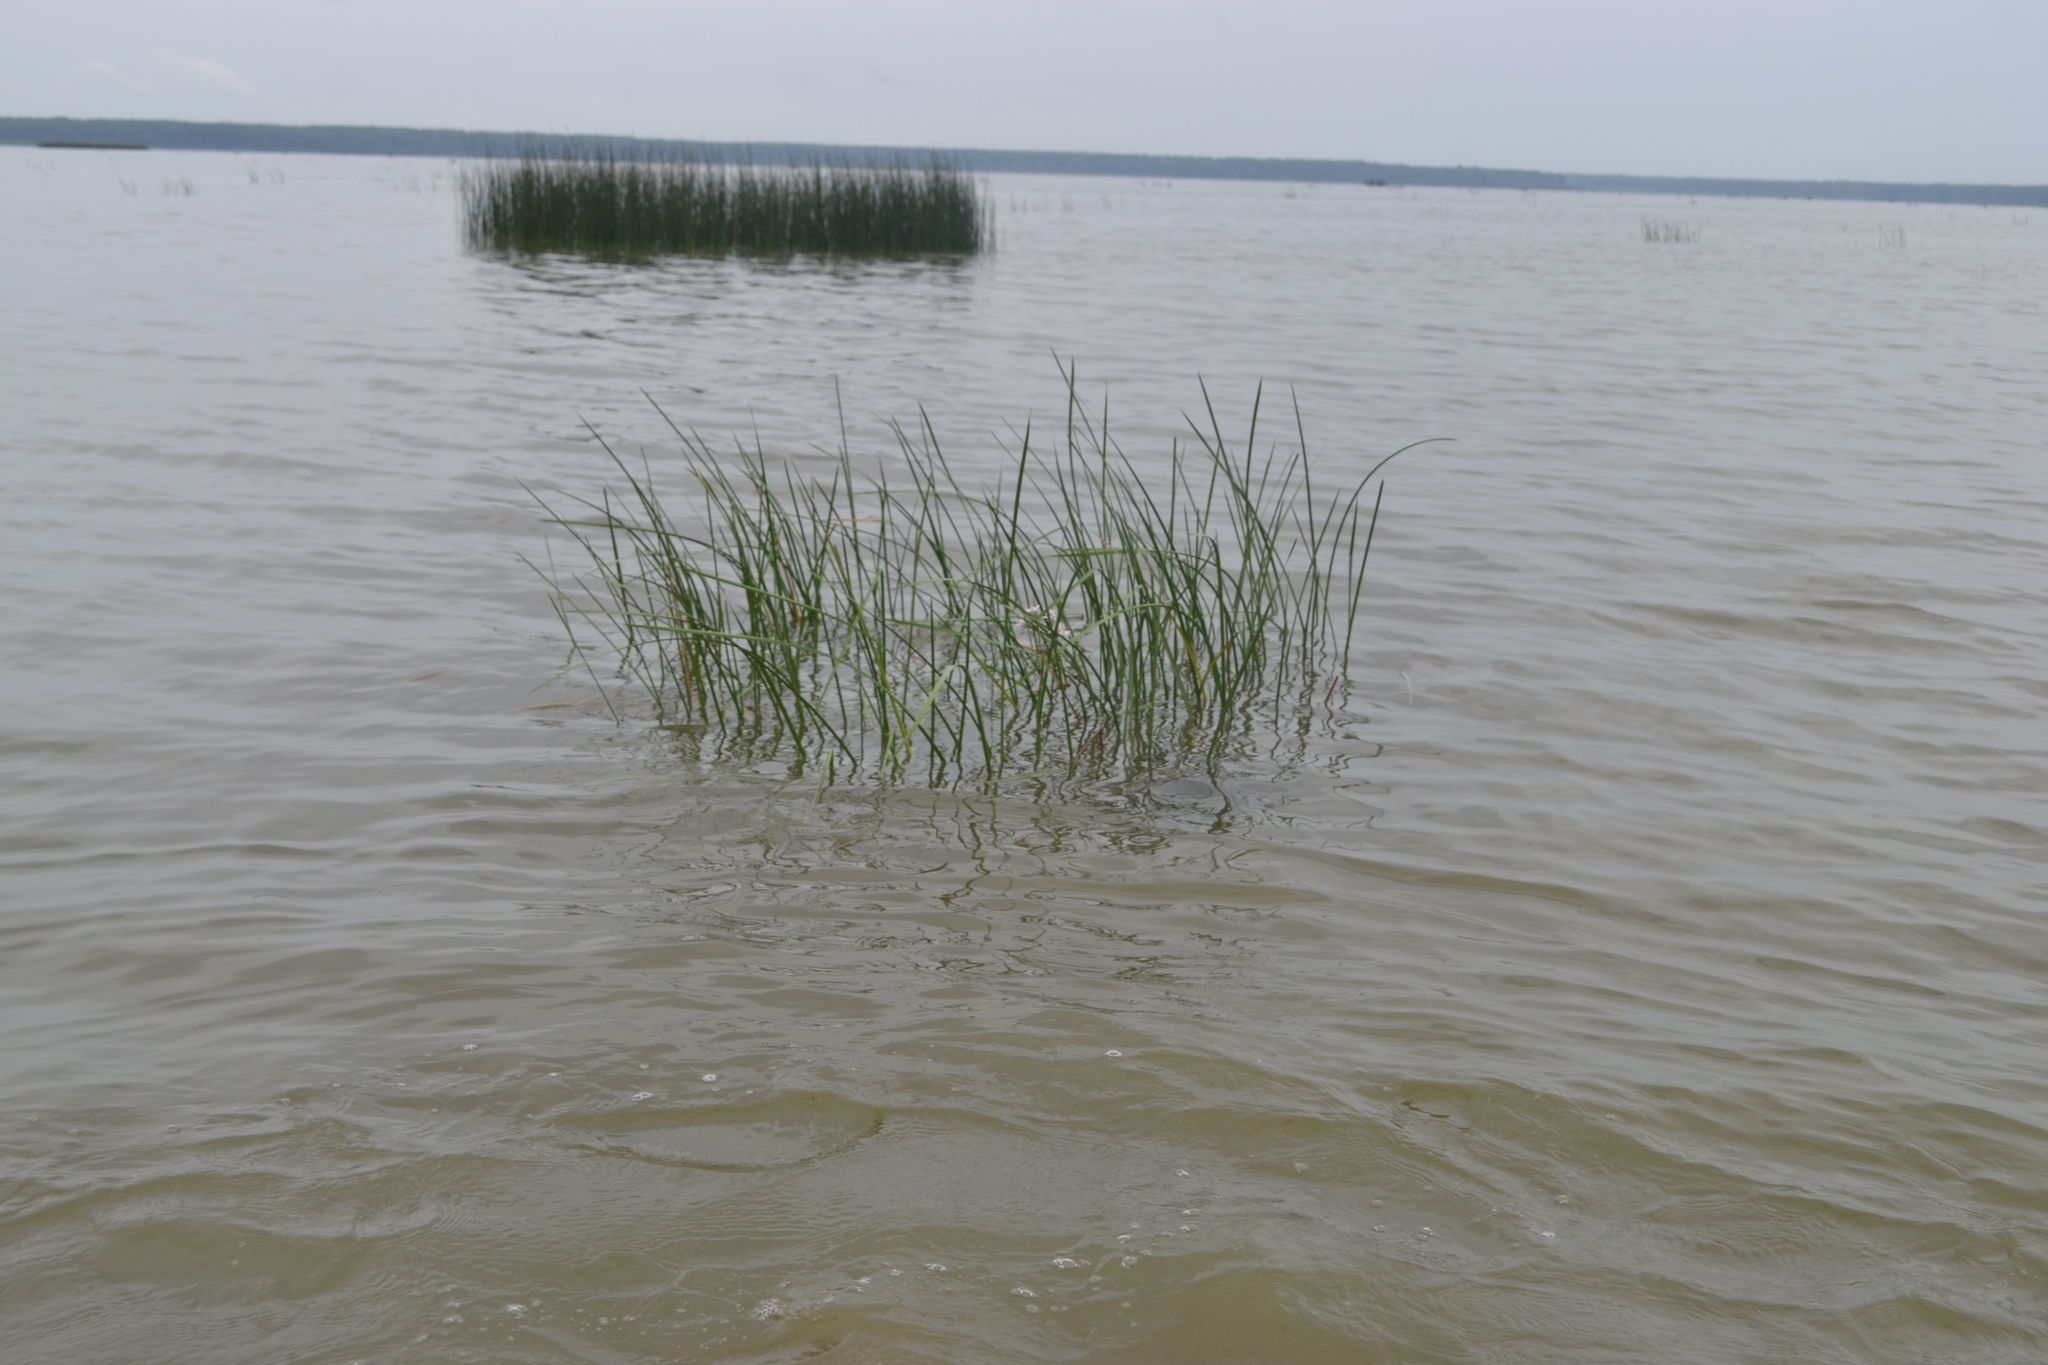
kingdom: Plantae
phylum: Tracheophyta
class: Liliopsida
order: Alismatales
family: Butomaceae
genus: Butomus
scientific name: Butomus umbellatus
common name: Flowering-rush
